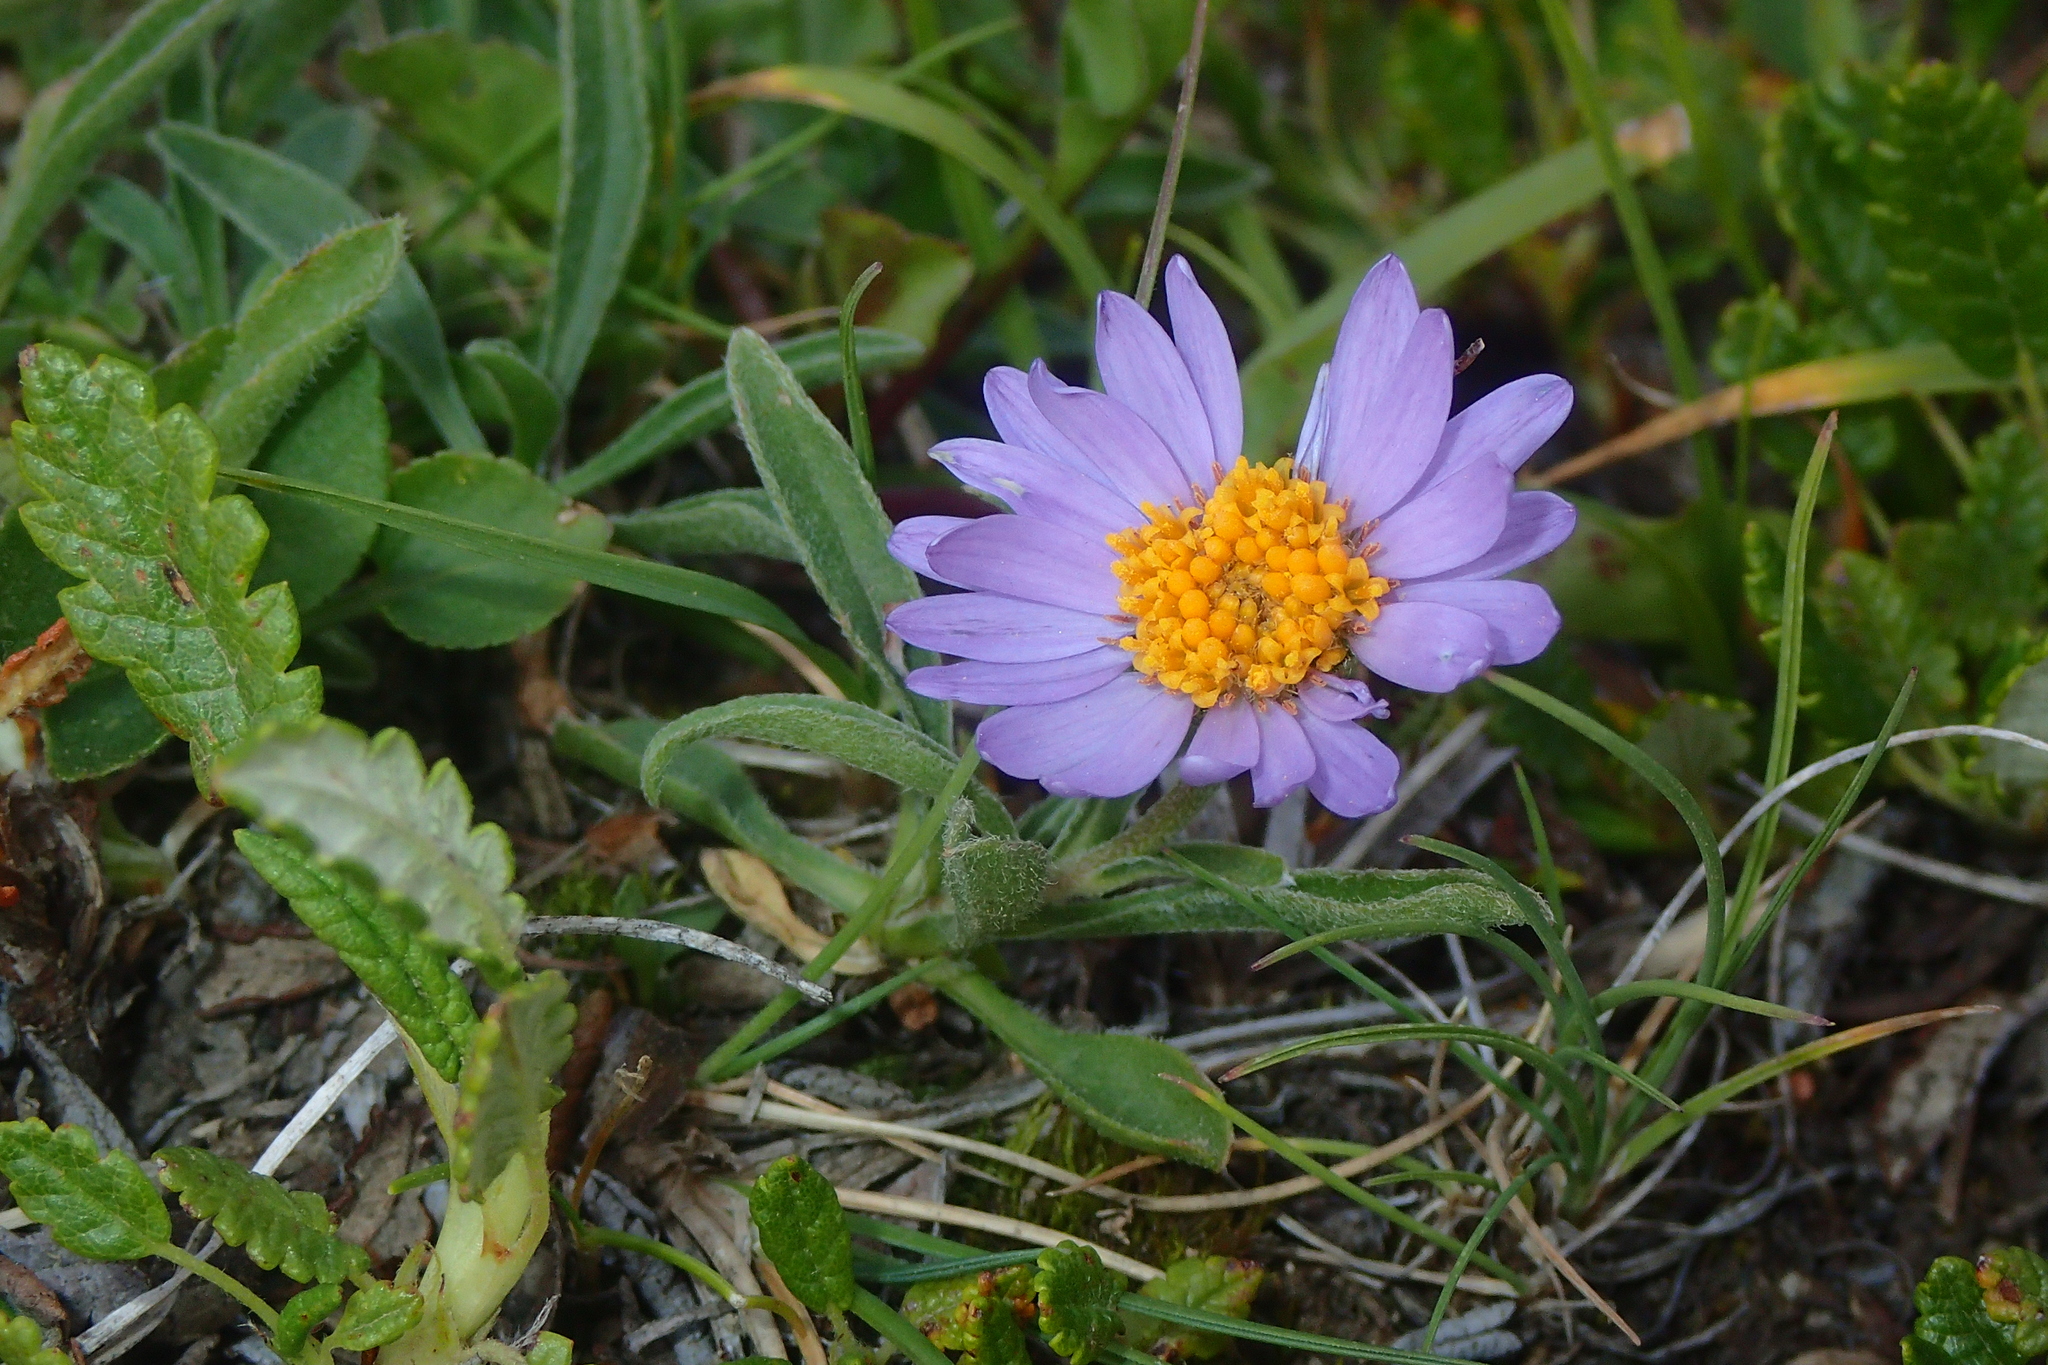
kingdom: Plantae
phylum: Tracheophyta
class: Magnoliopsida
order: Asterales
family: Asteraceae
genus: Aster
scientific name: Aster alpinus
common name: Alpine aster
